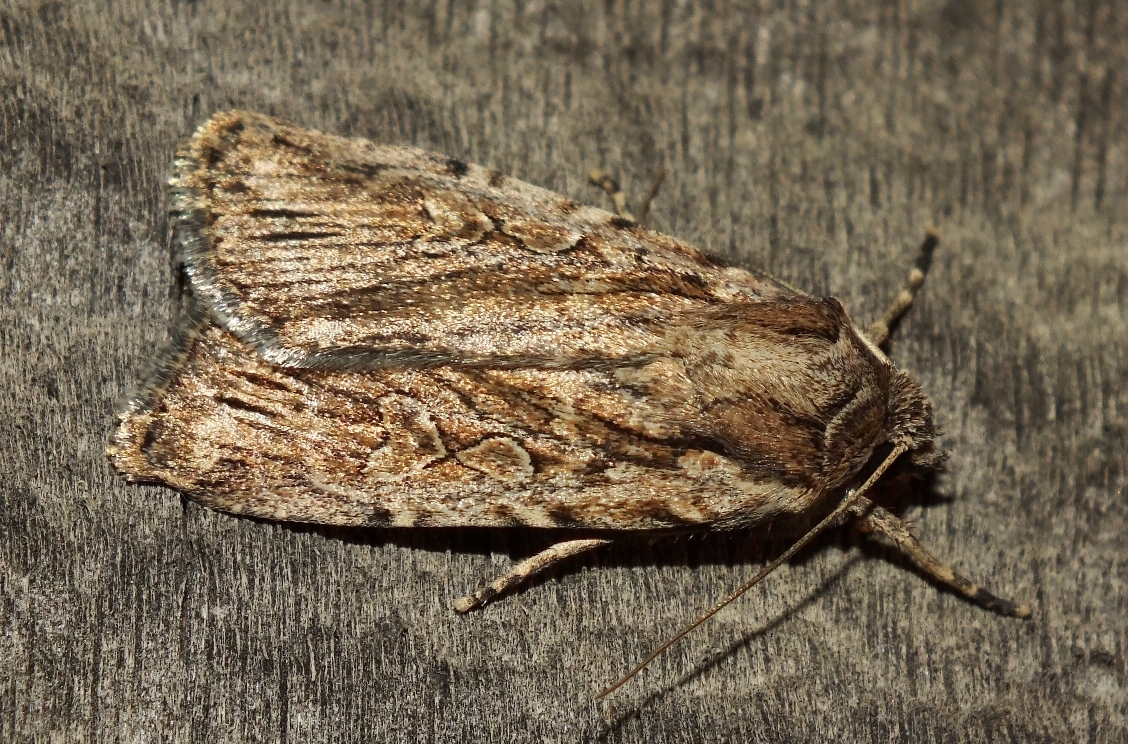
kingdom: Animalia
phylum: Arthropoda
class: Insecta
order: Lepidoptera
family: Noctuidae
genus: Yigoga
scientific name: Yigoga signifera
